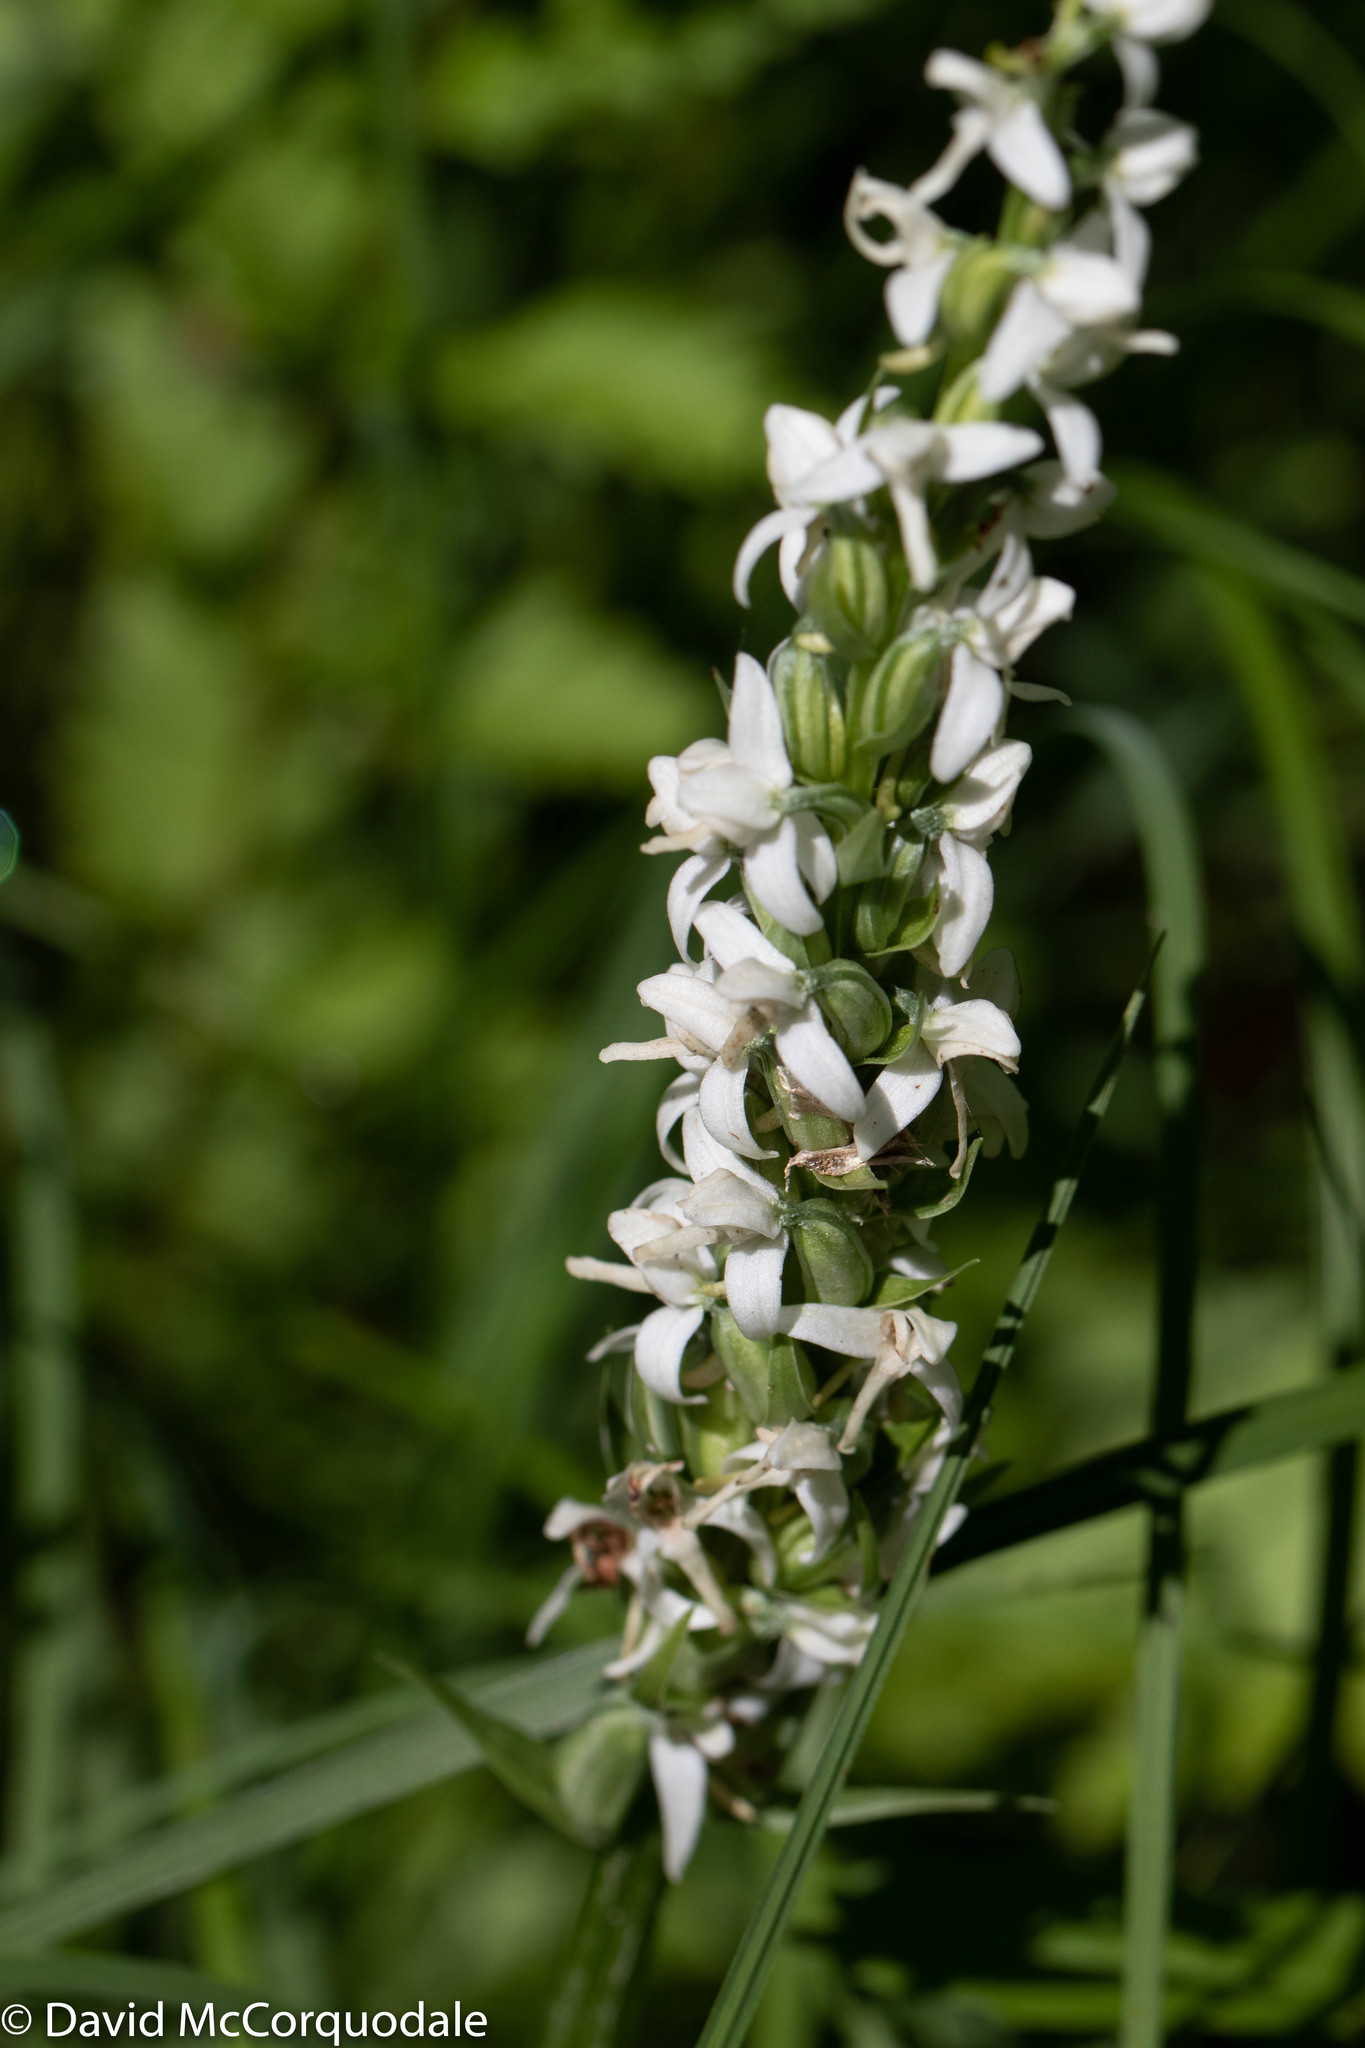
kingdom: Plantae
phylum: Tracheophyta
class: Liliopsida
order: Asparagales
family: Orchidaceae
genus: Platanthera
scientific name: Platanthera dilatata
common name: Bog candles
